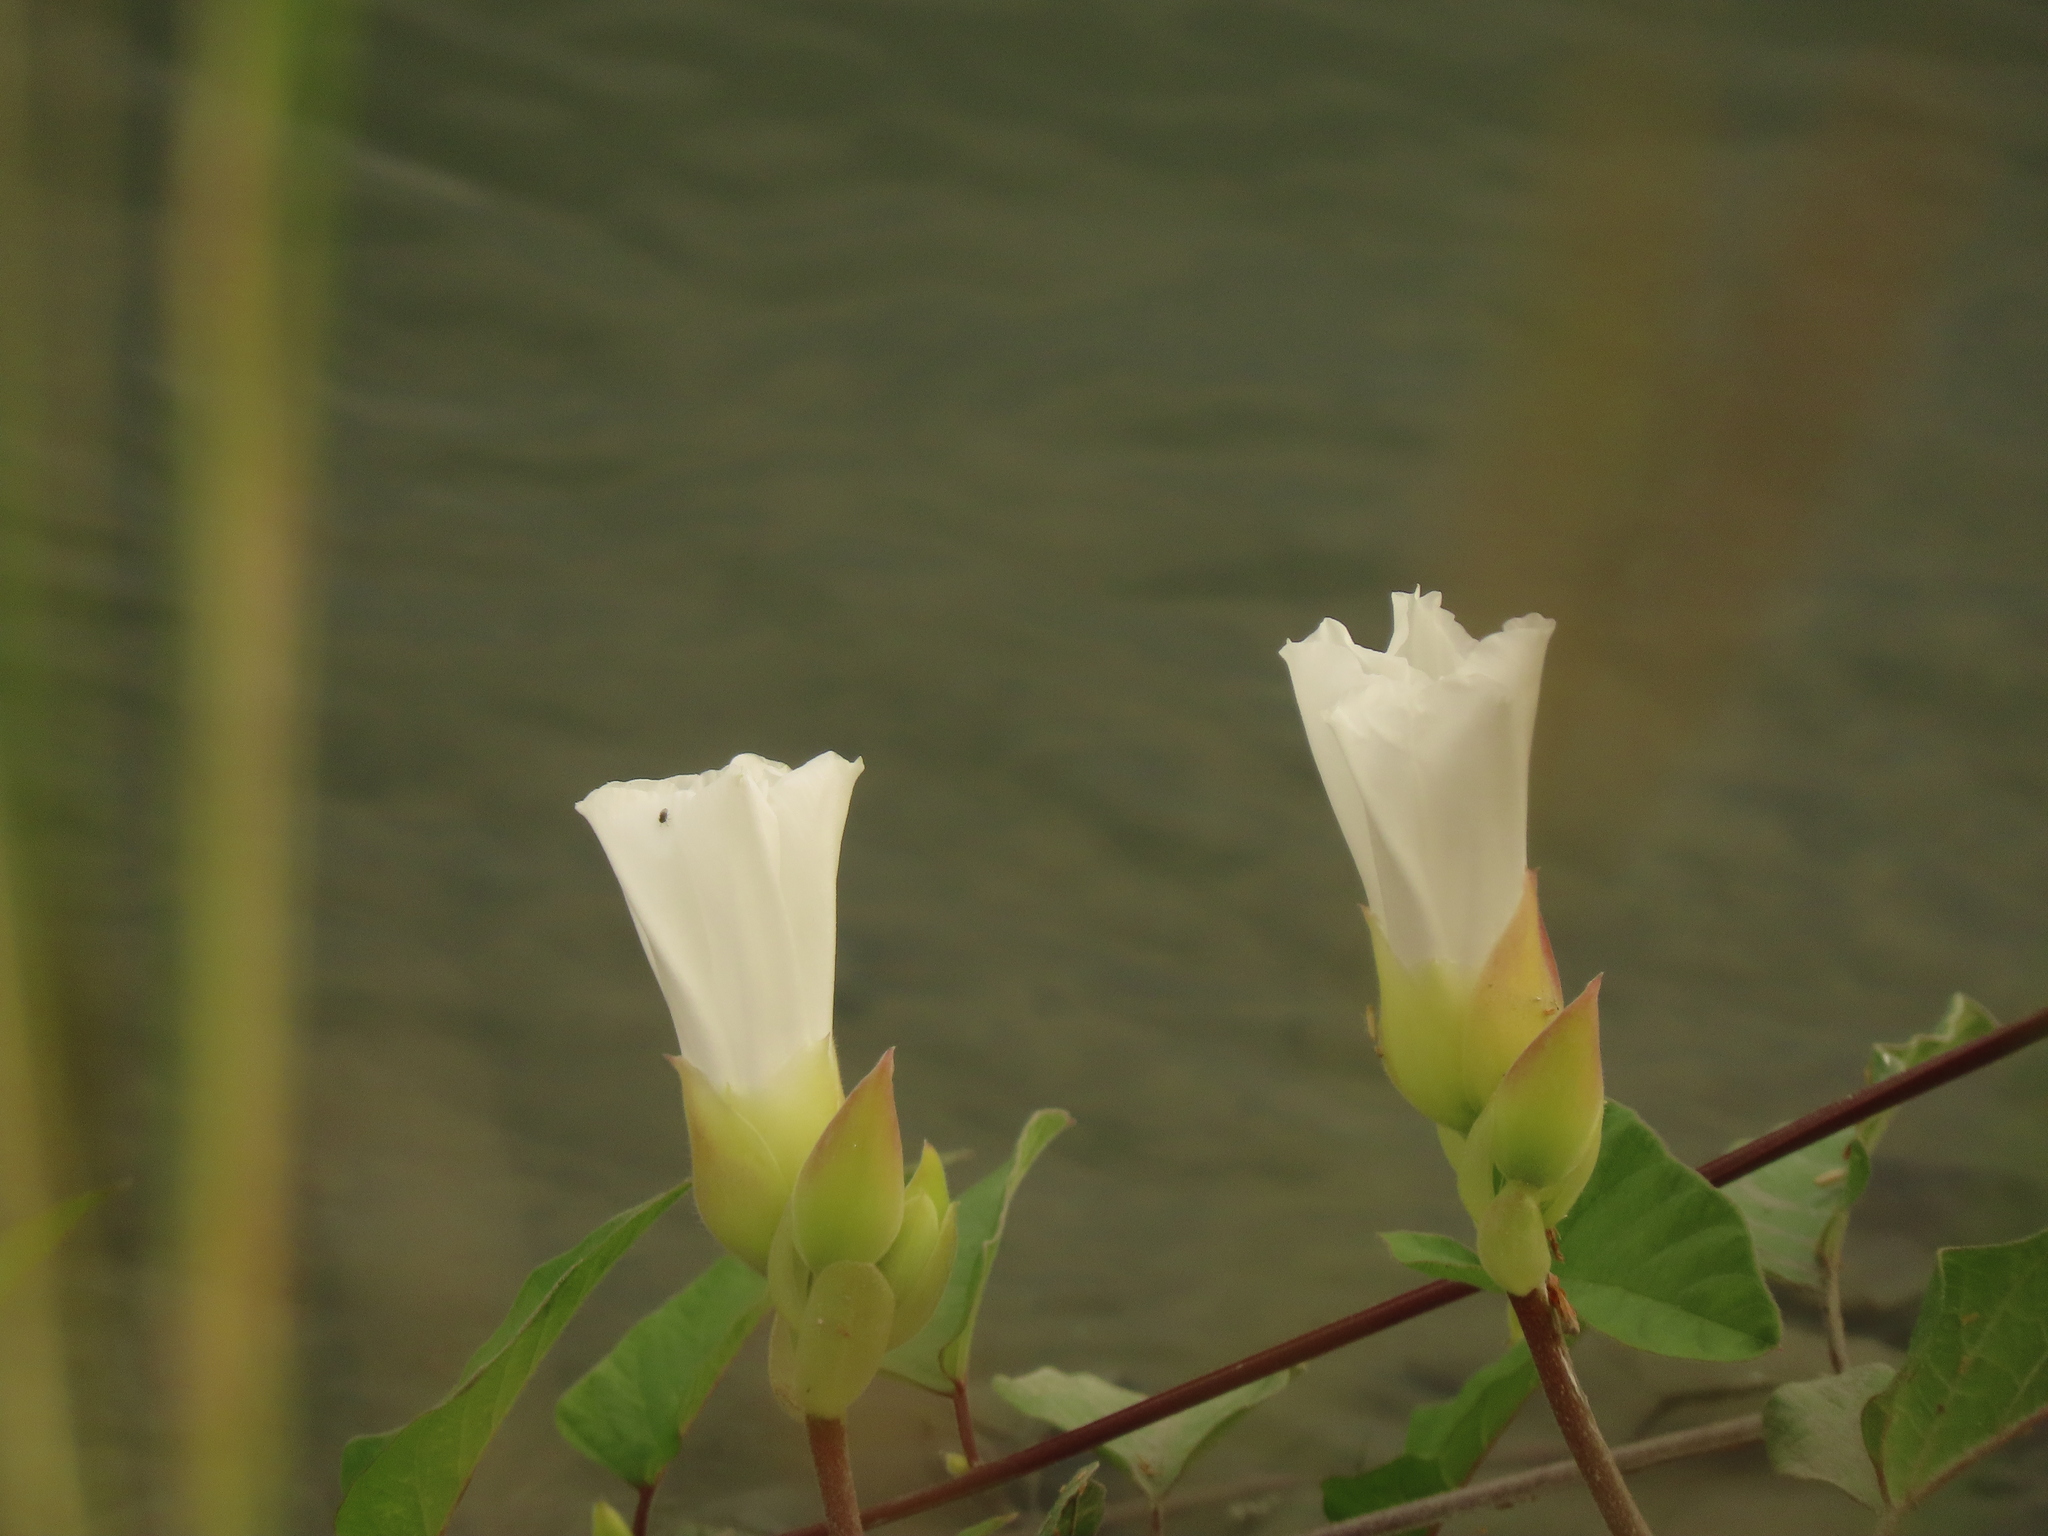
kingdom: Plantae
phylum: Tracheophyta
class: Magnoliopsida
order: Solanales
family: Convolvulaceae
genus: Operculina
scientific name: Operculina turpethum
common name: Transparent wood-rose
